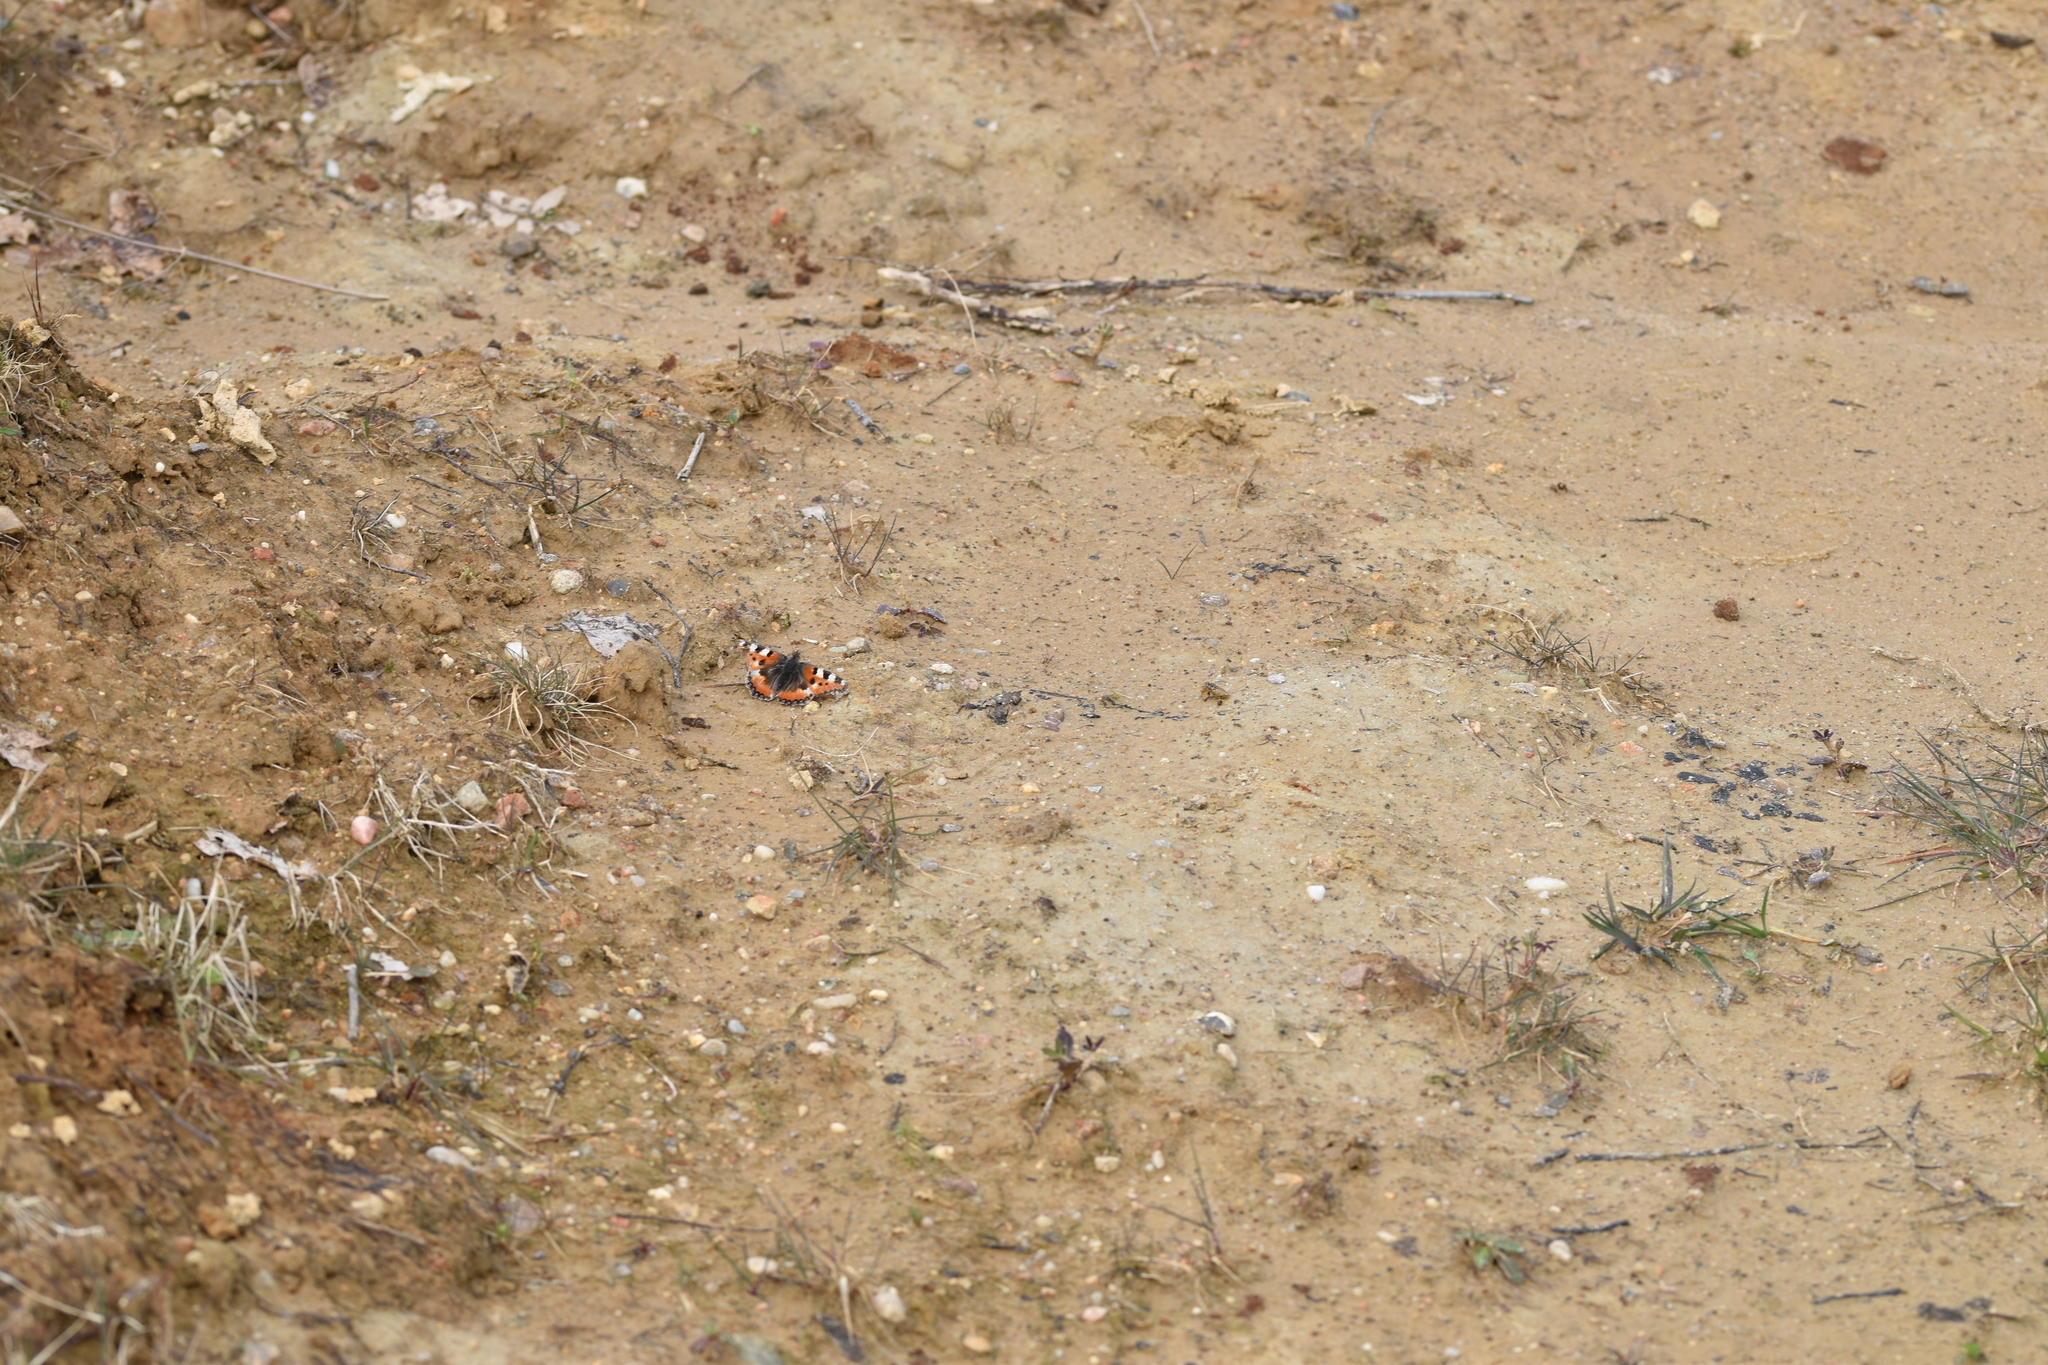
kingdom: Animalia
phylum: Arthropoda
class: Insecta
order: Lepidoptera
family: Nymphalidae
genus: Aglais
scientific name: Aglais urticae
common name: Small tortoiseshell
